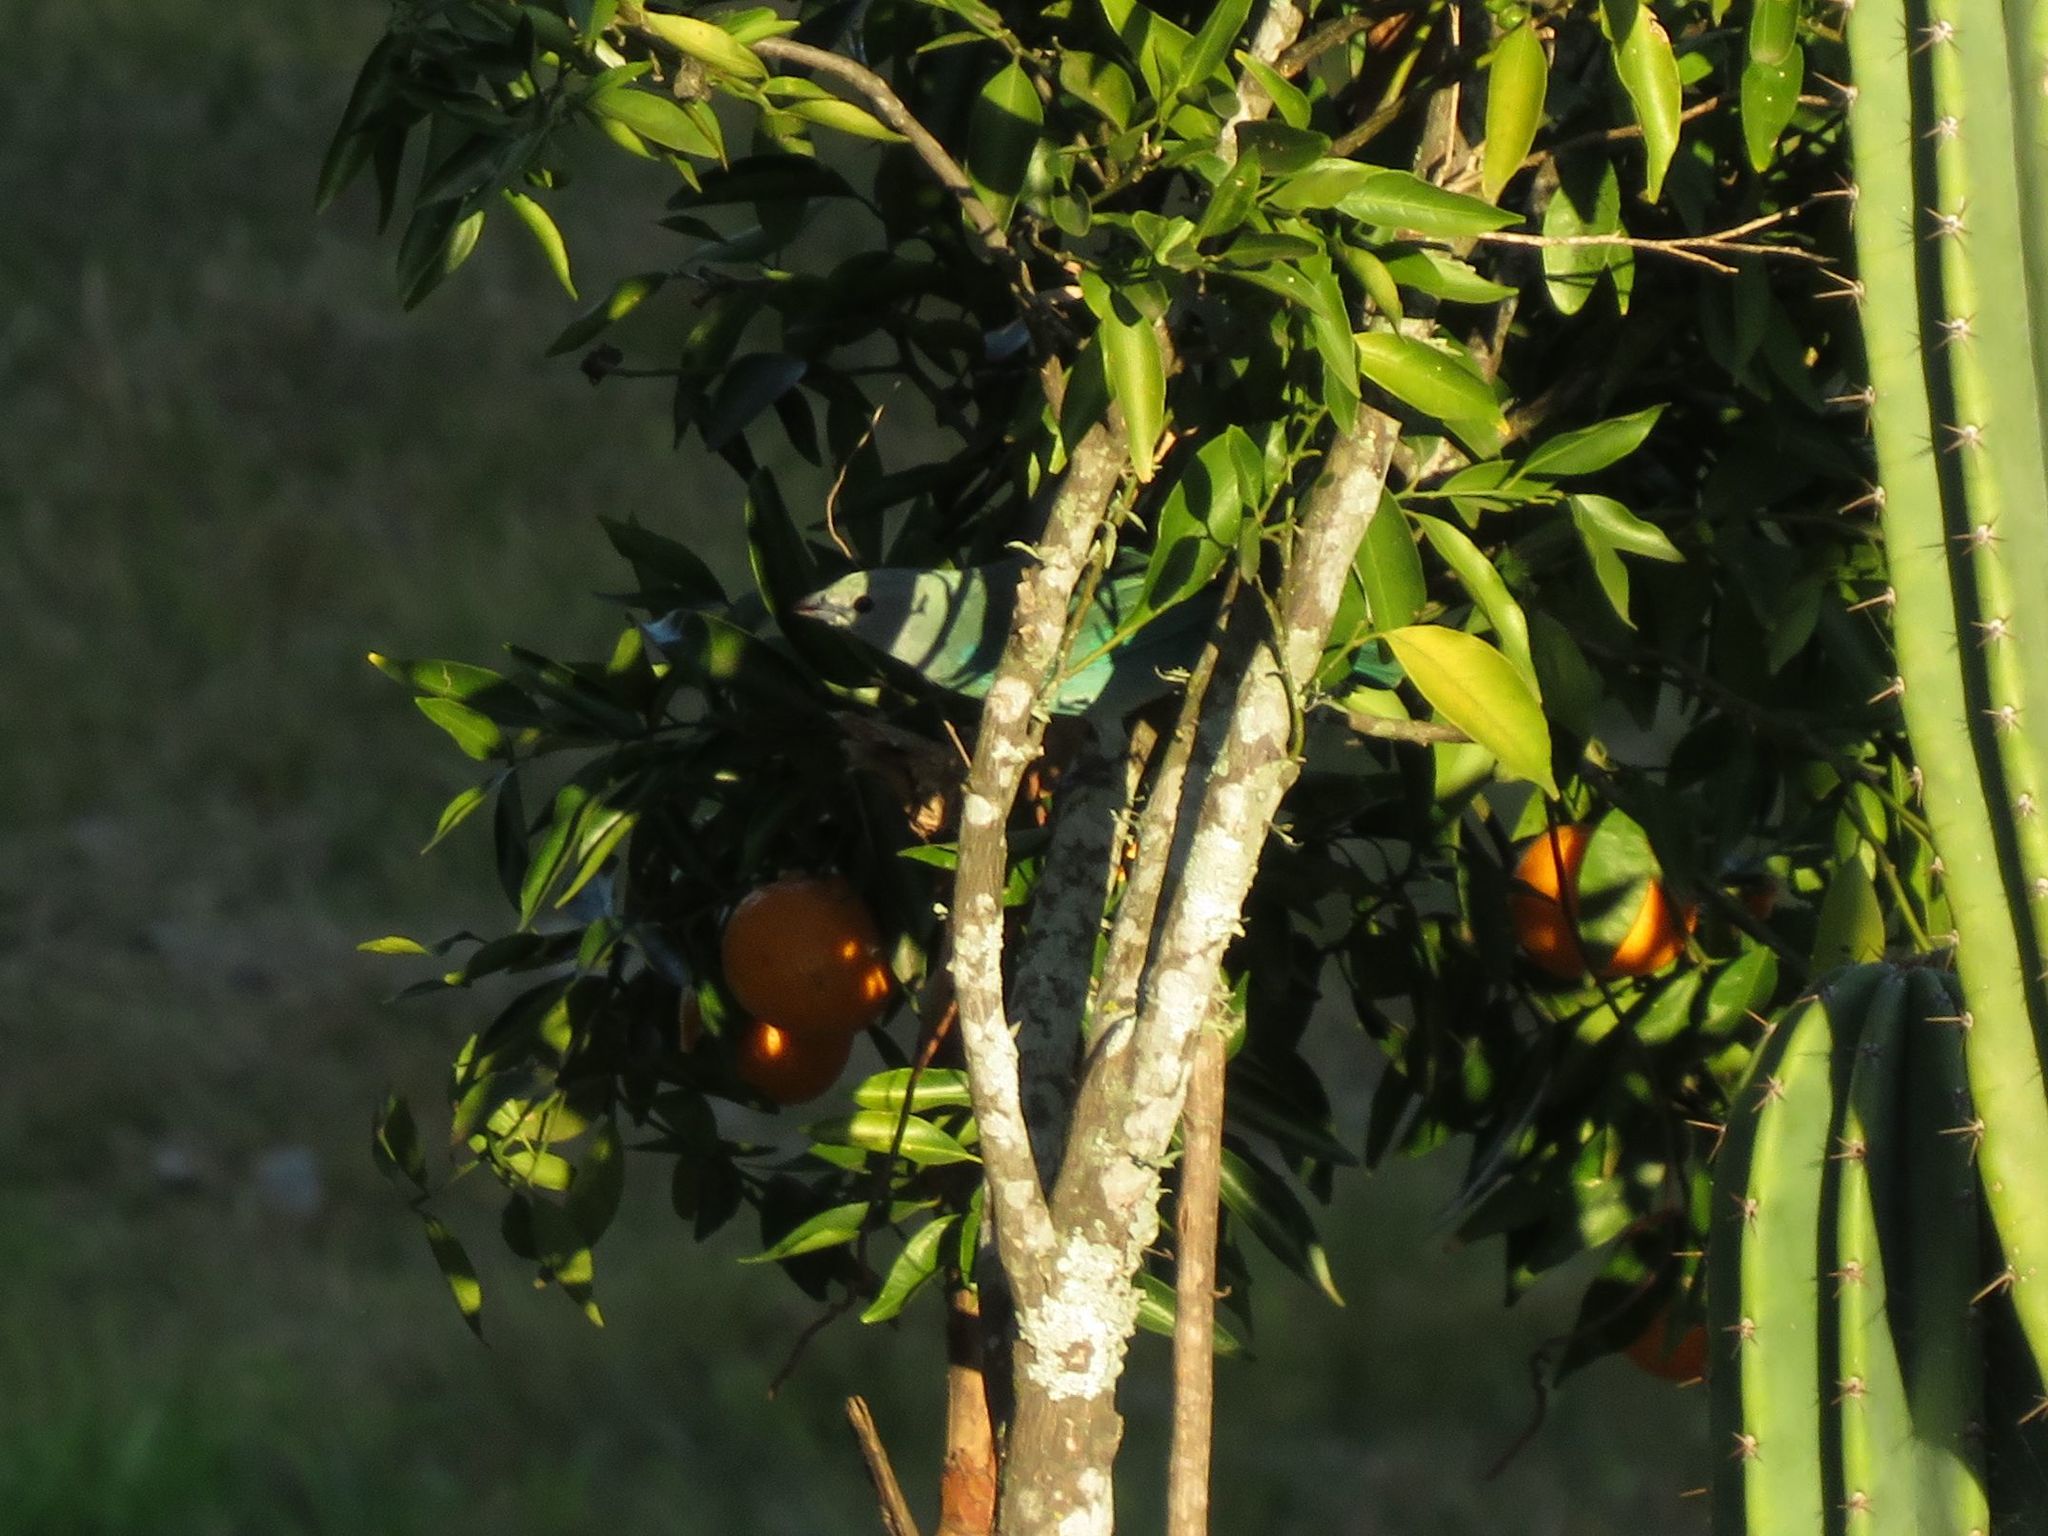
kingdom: Animalia
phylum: Chordata
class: Aves
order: Passeriformes
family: Thraupidae
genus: Thraupis
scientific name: Thraupis sayaca
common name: Sayaca tanager
